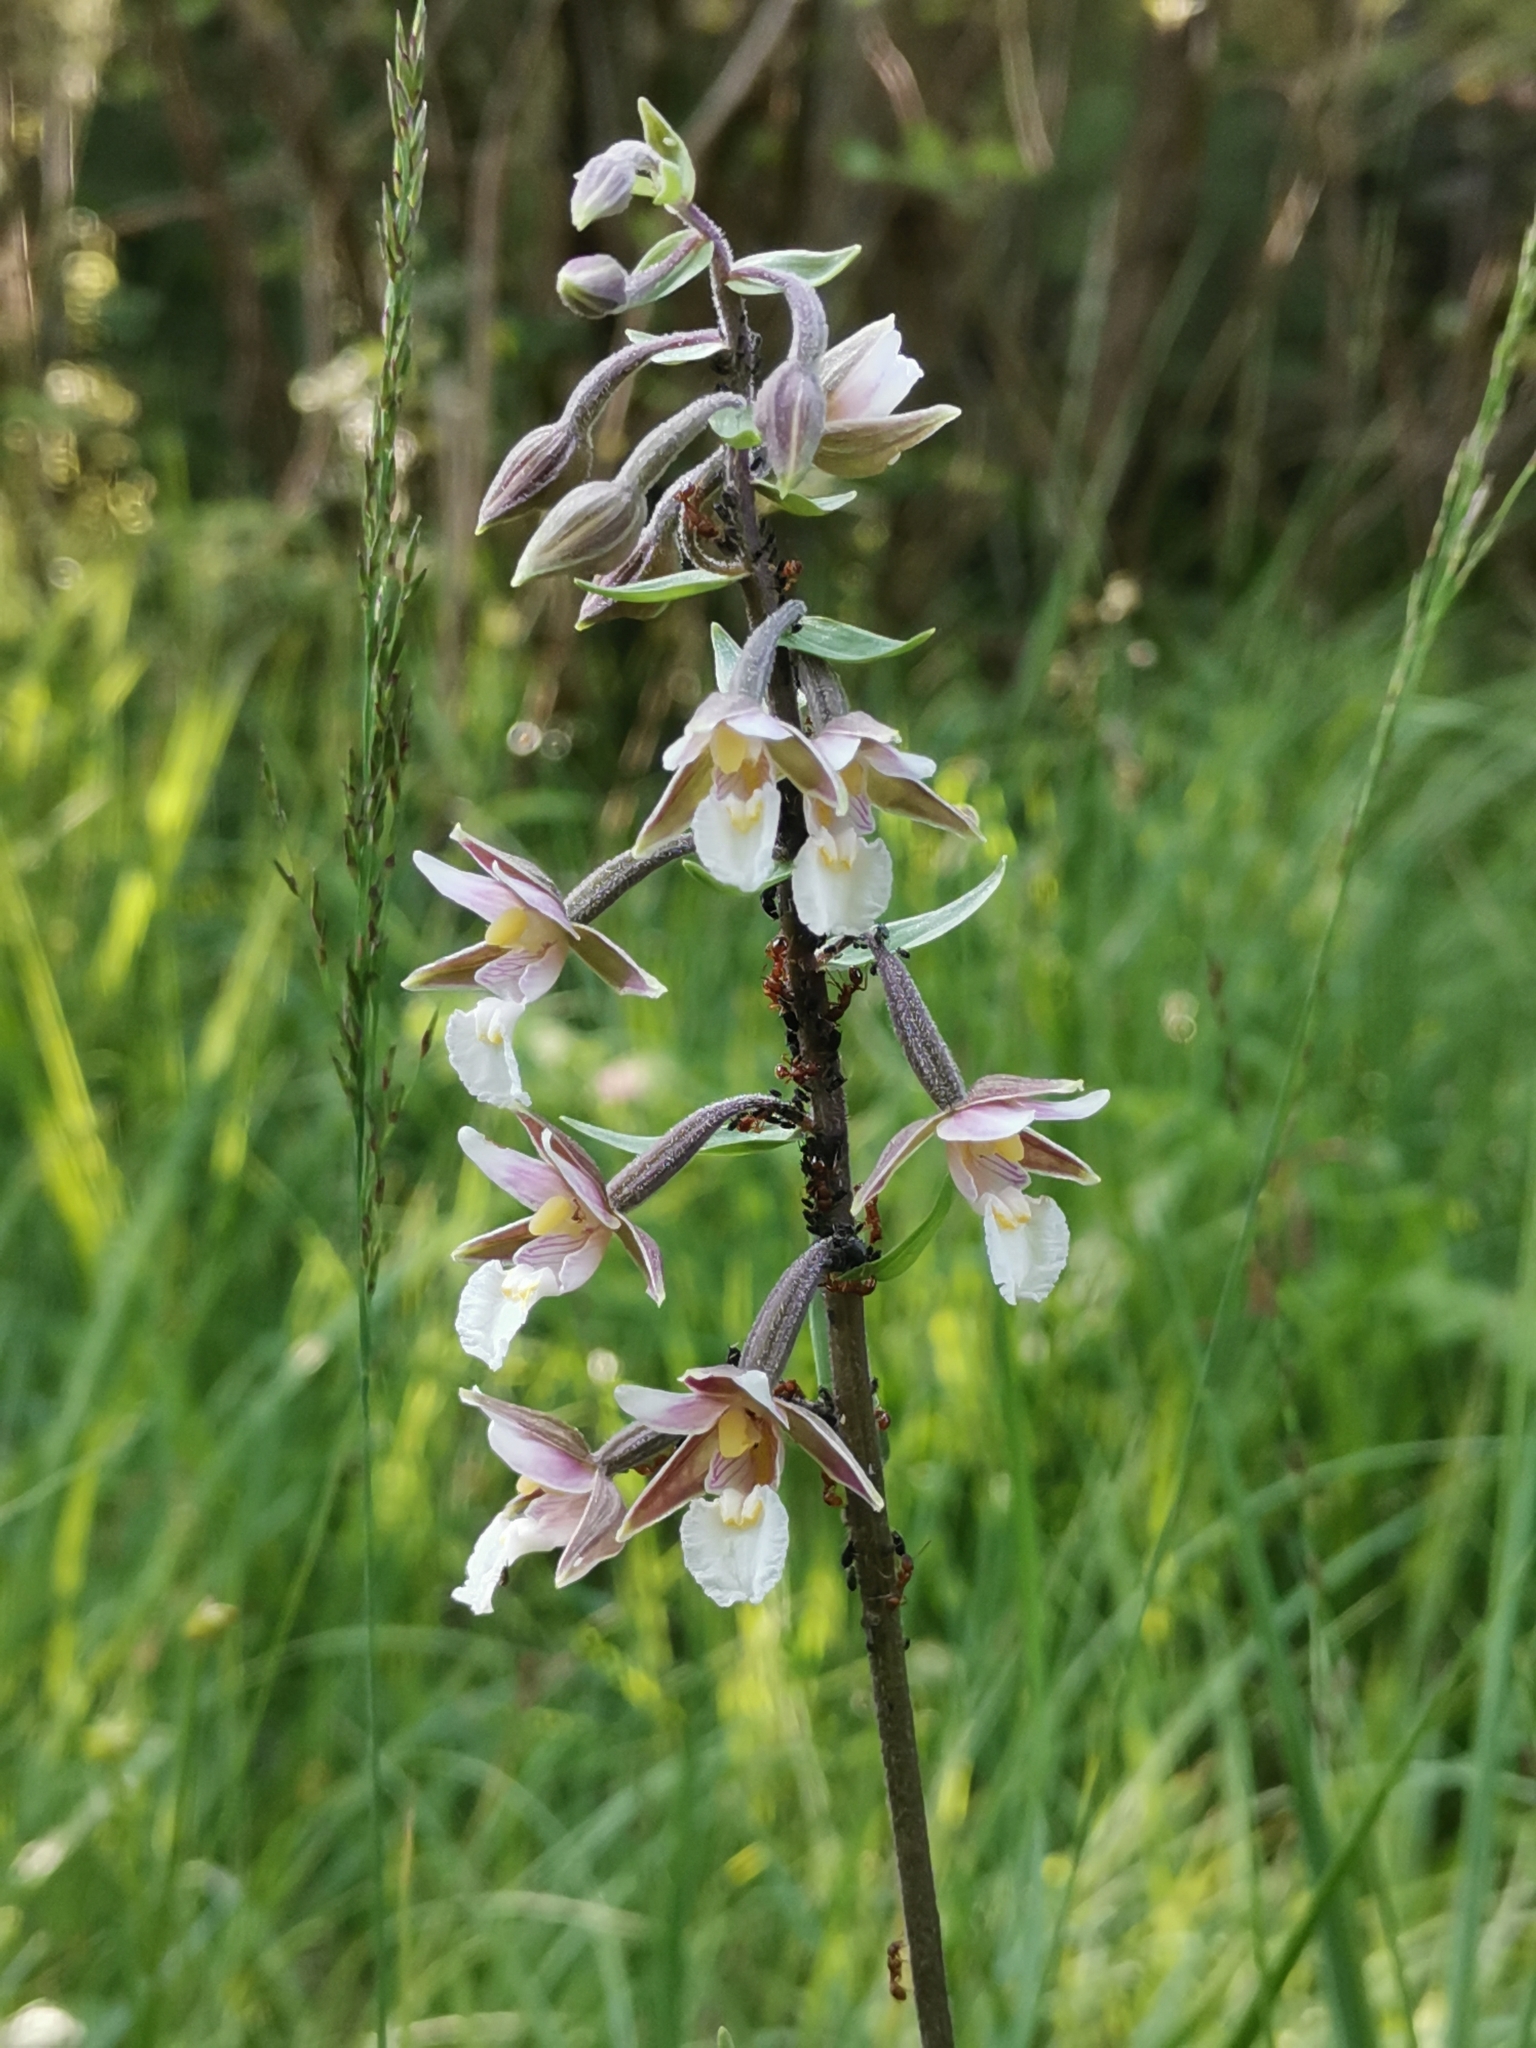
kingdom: Plantae
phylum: Tracheophyta
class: Liliopsida
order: Asparagales
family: Orchidaceae
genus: Epipactis
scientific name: Epipactis palustris
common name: Marsh helleborine
